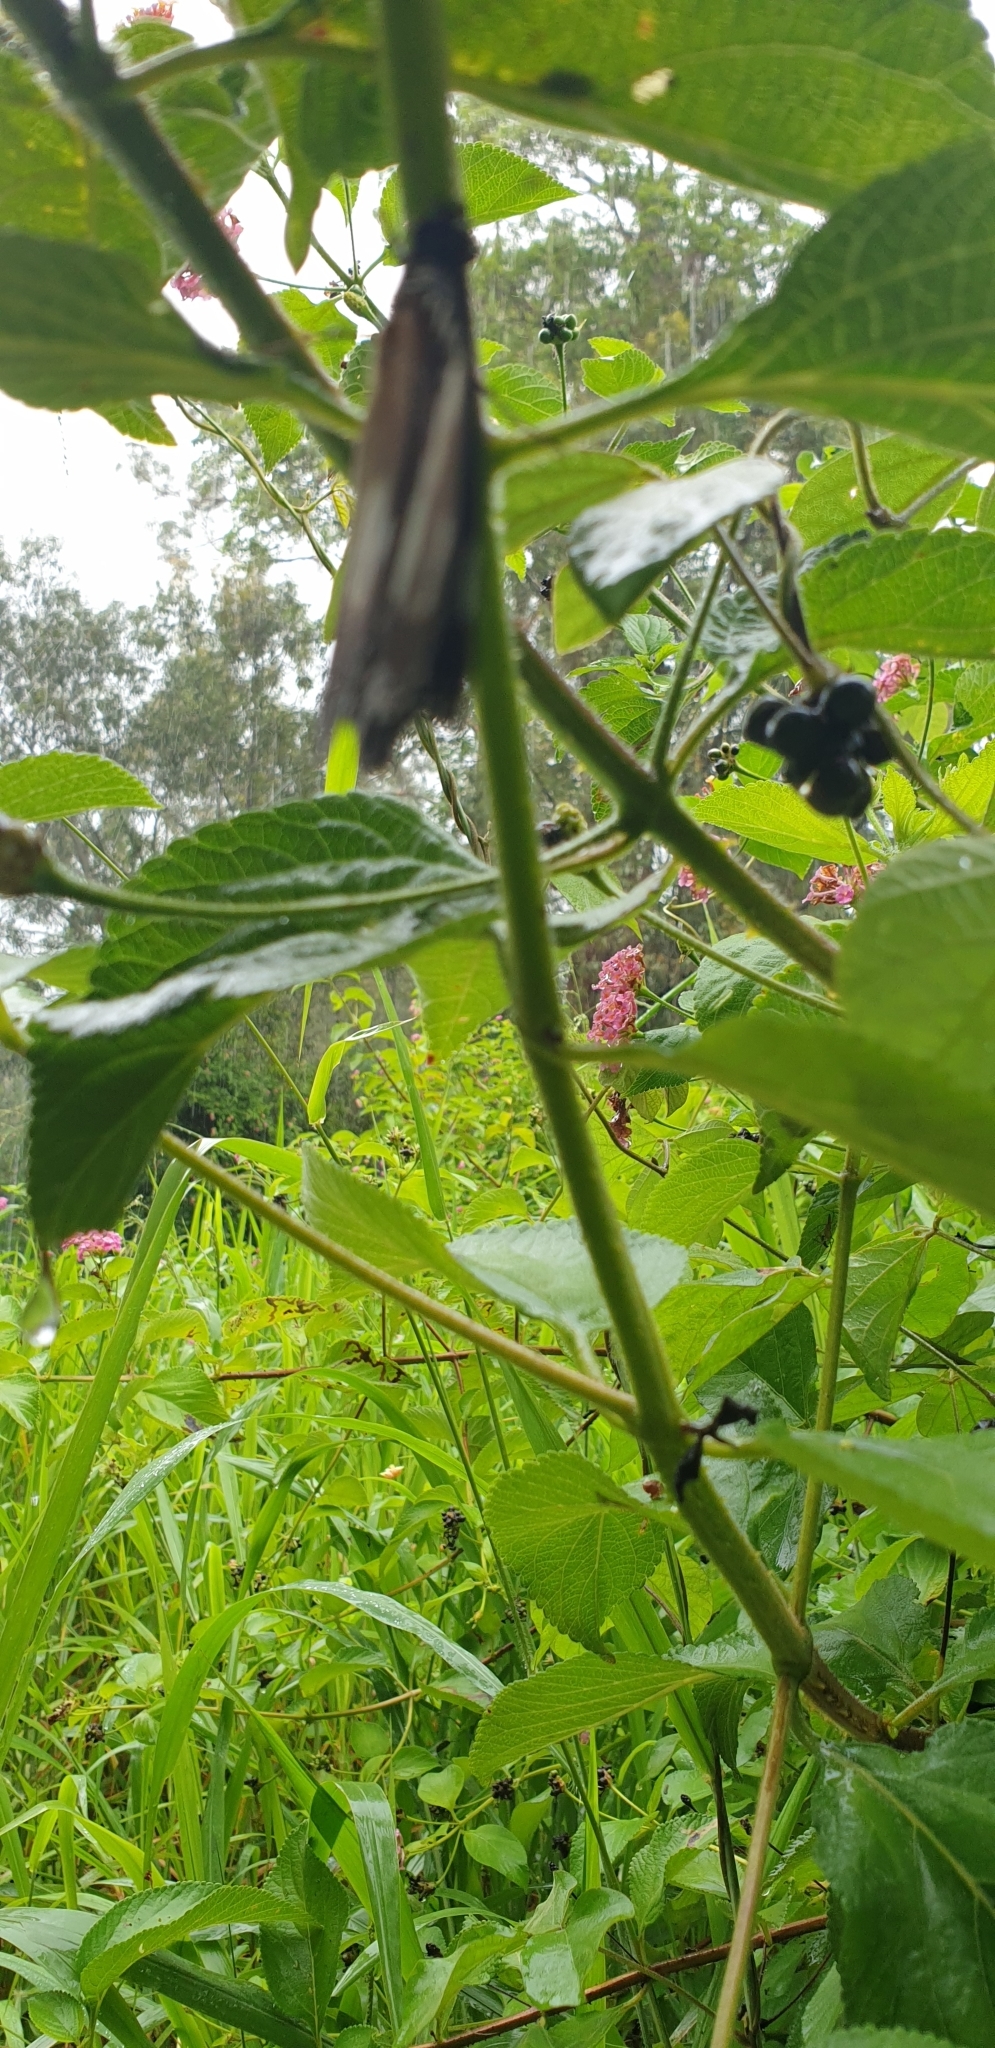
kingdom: Animalia
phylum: Arthropoda
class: Insecta
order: Lepidoptera
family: Nymphalidae
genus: Hypolimnas
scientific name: Hypolimnas bolina
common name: Great eggfly
